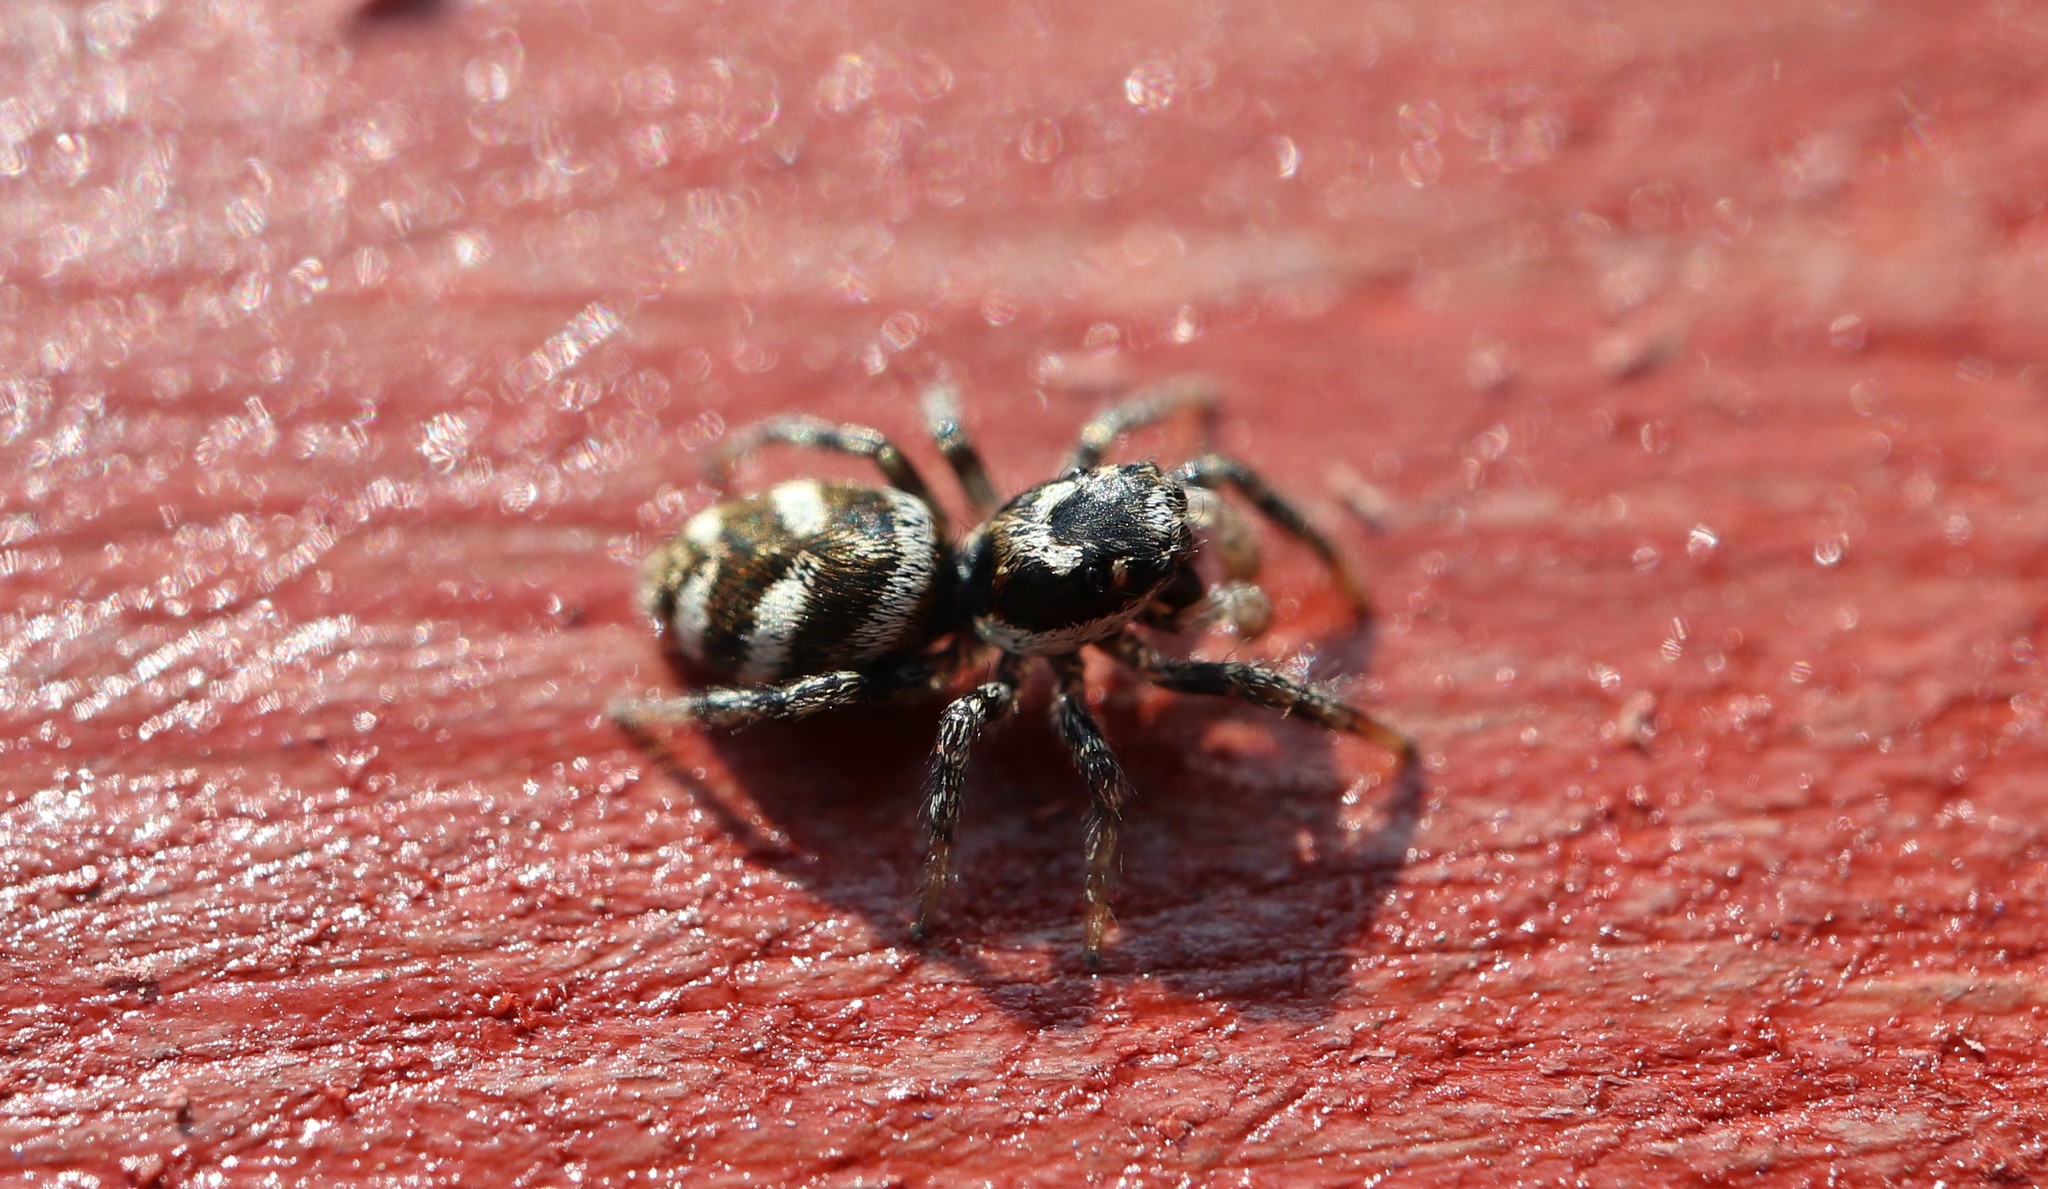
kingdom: Animalia
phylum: Arthropoda
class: Arachnida
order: Araneae
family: Salticidae
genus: Salticus
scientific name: Salticus scenicus
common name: Zebra jumper
